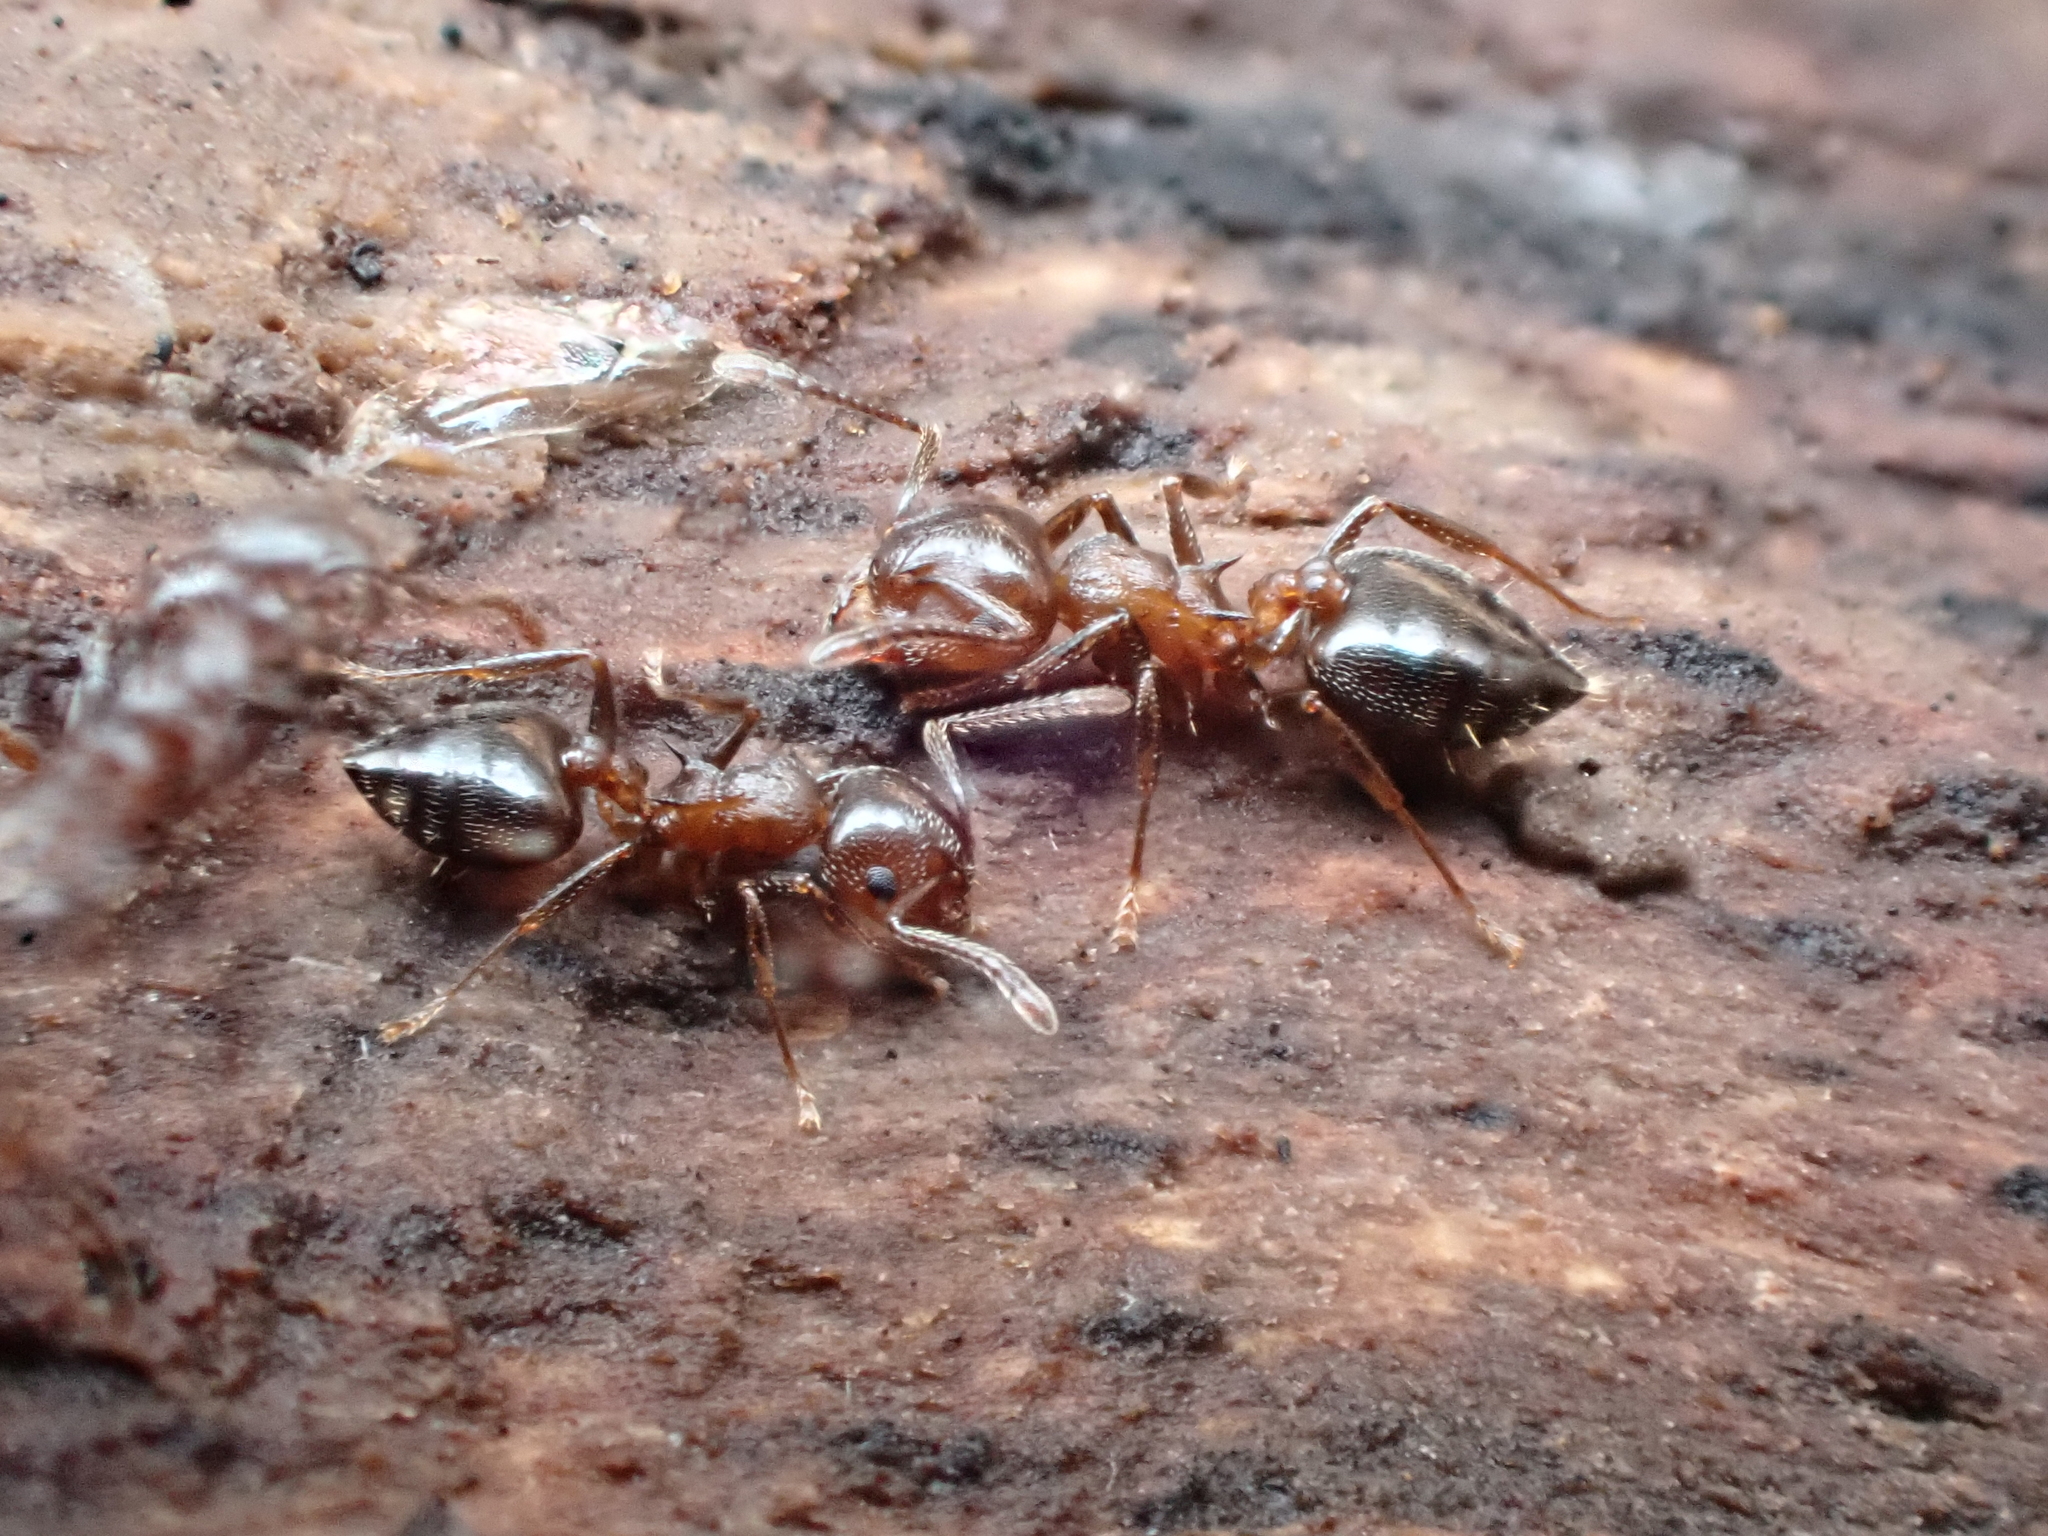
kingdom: Animalia
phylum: Arthropoda
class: Insecta
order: Hymenoptera
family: Formicidae
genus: Crematogaster
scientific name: Crematogaster cerasi
